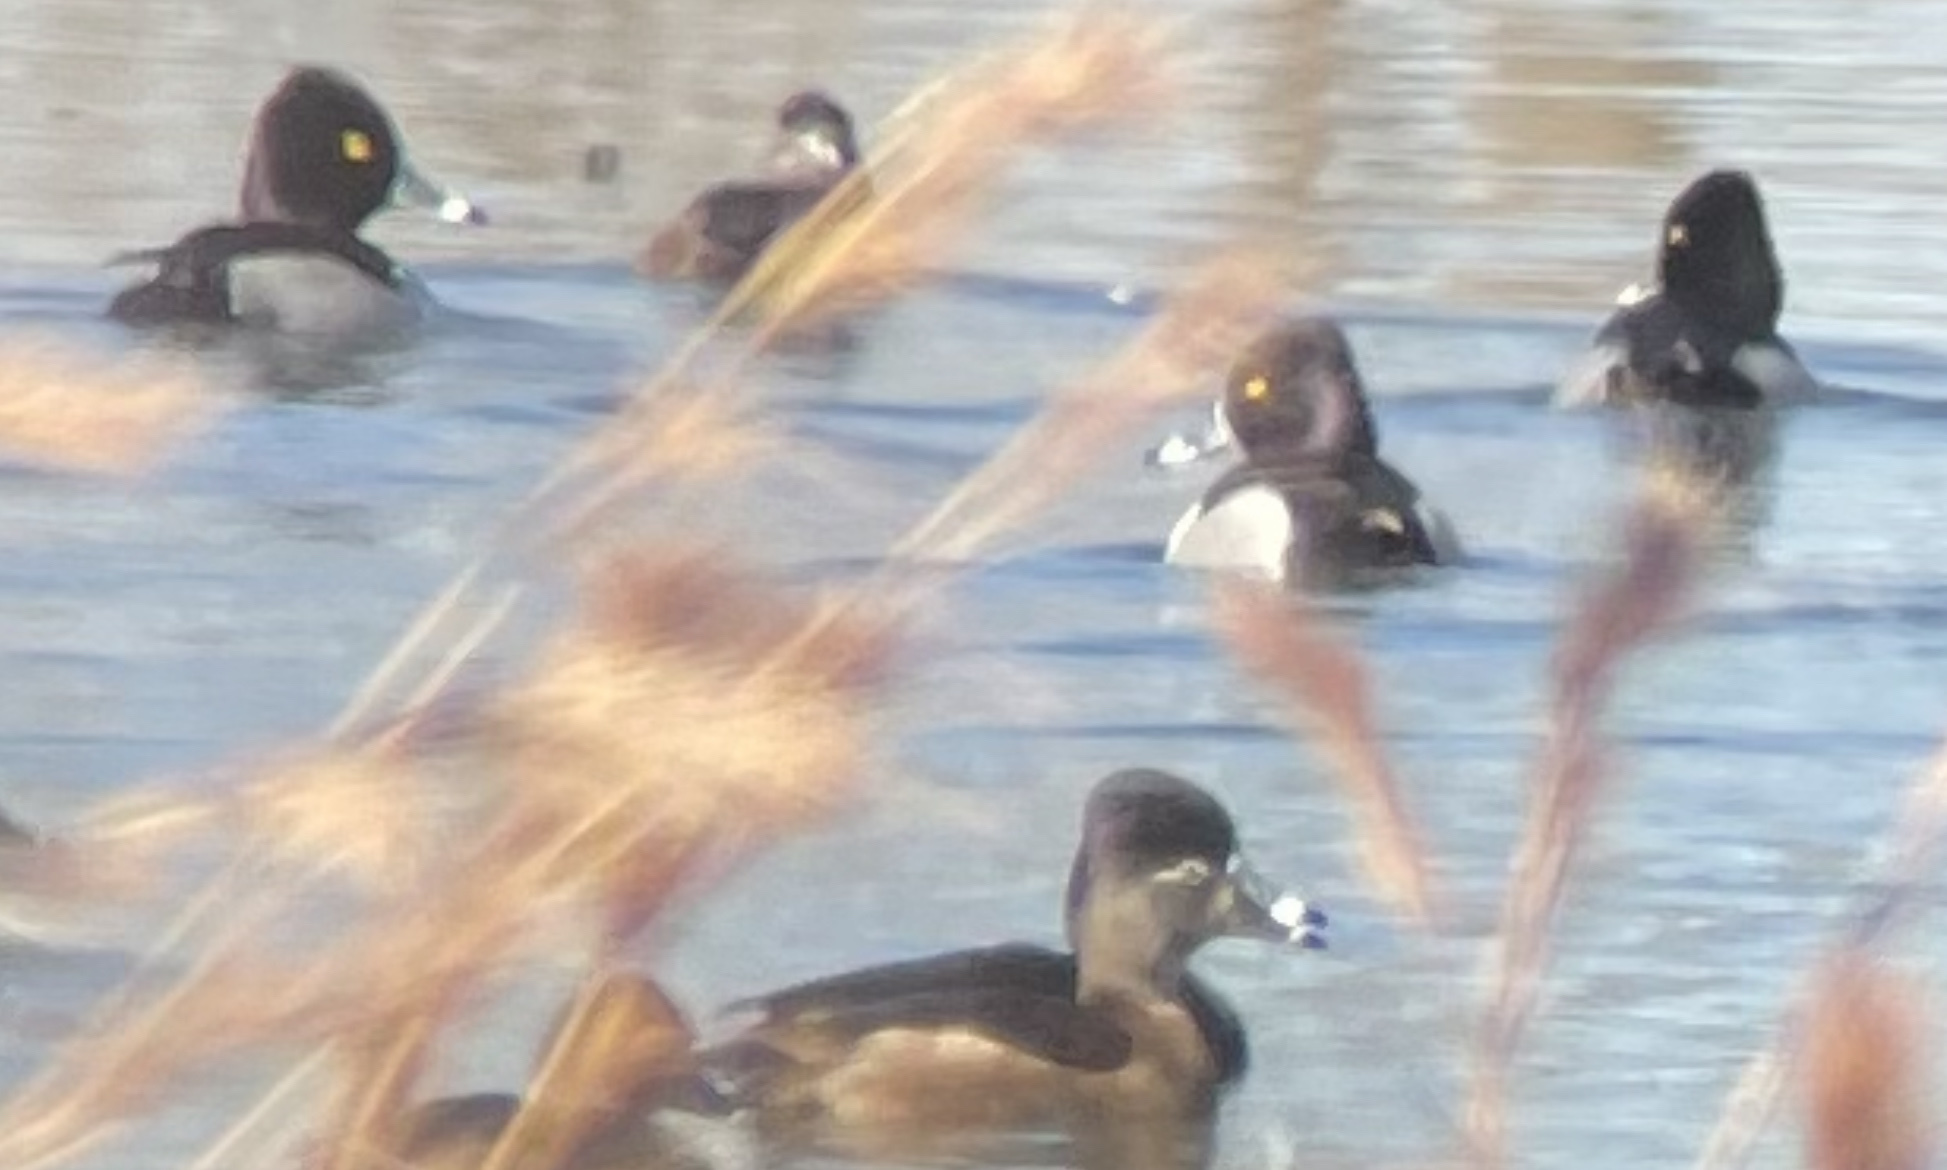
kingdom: Animalia
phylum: Chordata
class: Aves
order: Anseriformes
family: Anatidae
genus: Aythya
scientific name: Aythya collaris
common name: Ring-necked duck
